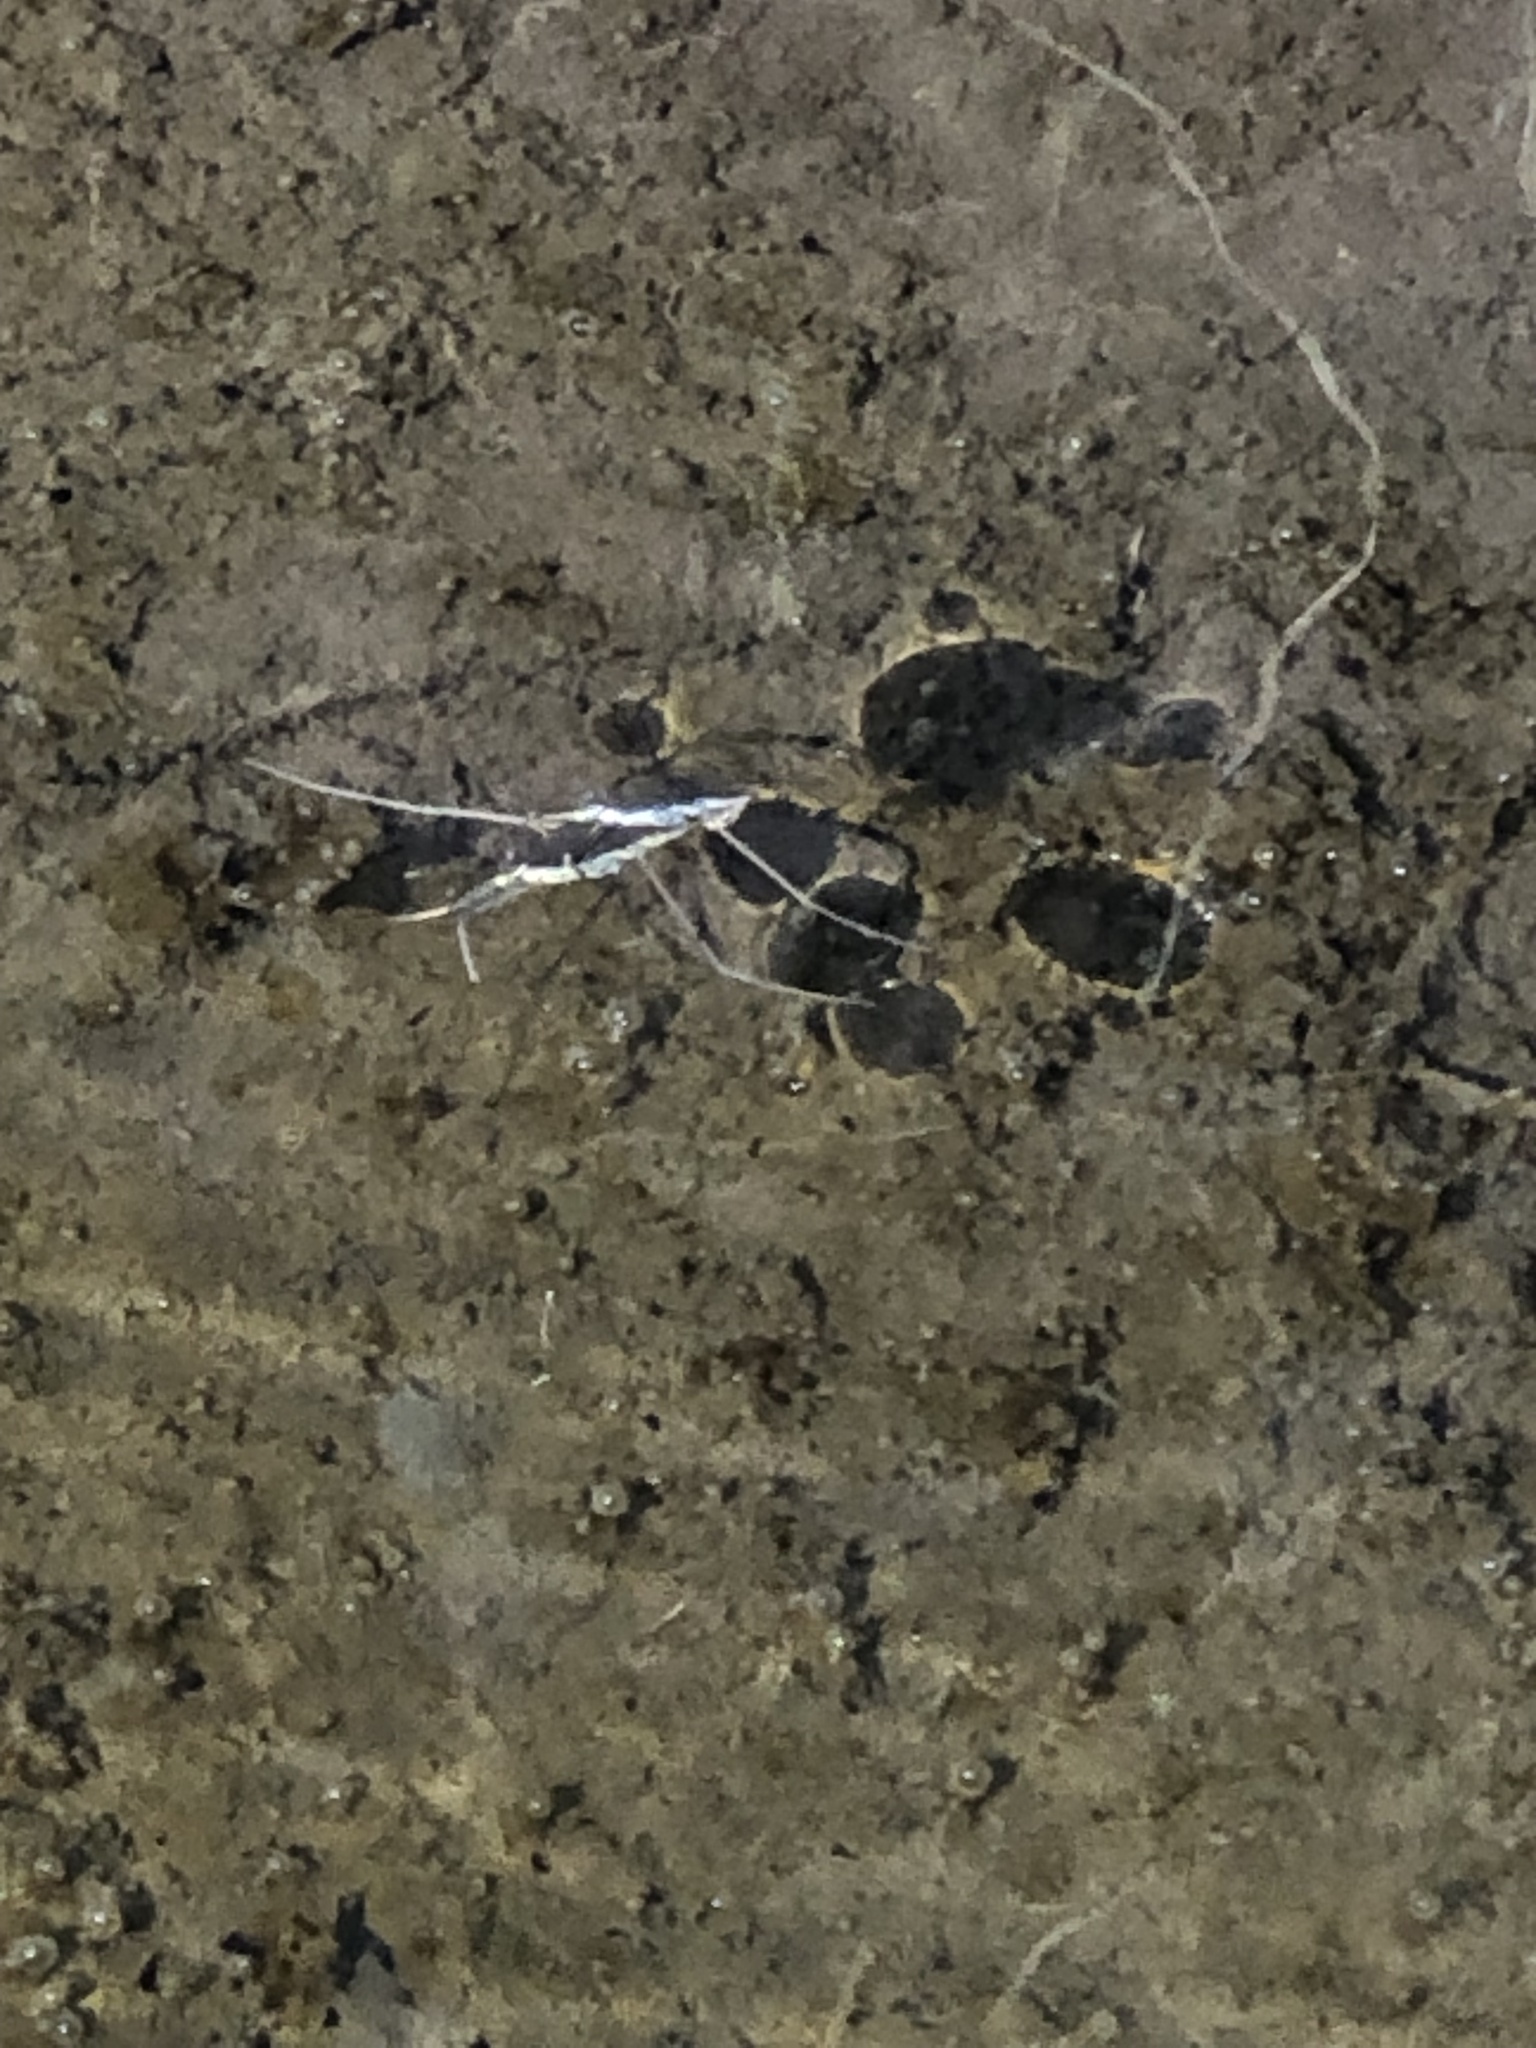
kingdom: Animalia
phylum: Arthropoda
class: Insecta
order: Hemiptera
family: Gerridae
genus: Aquarius
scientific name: Aquarius remigis
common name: Common water strider
